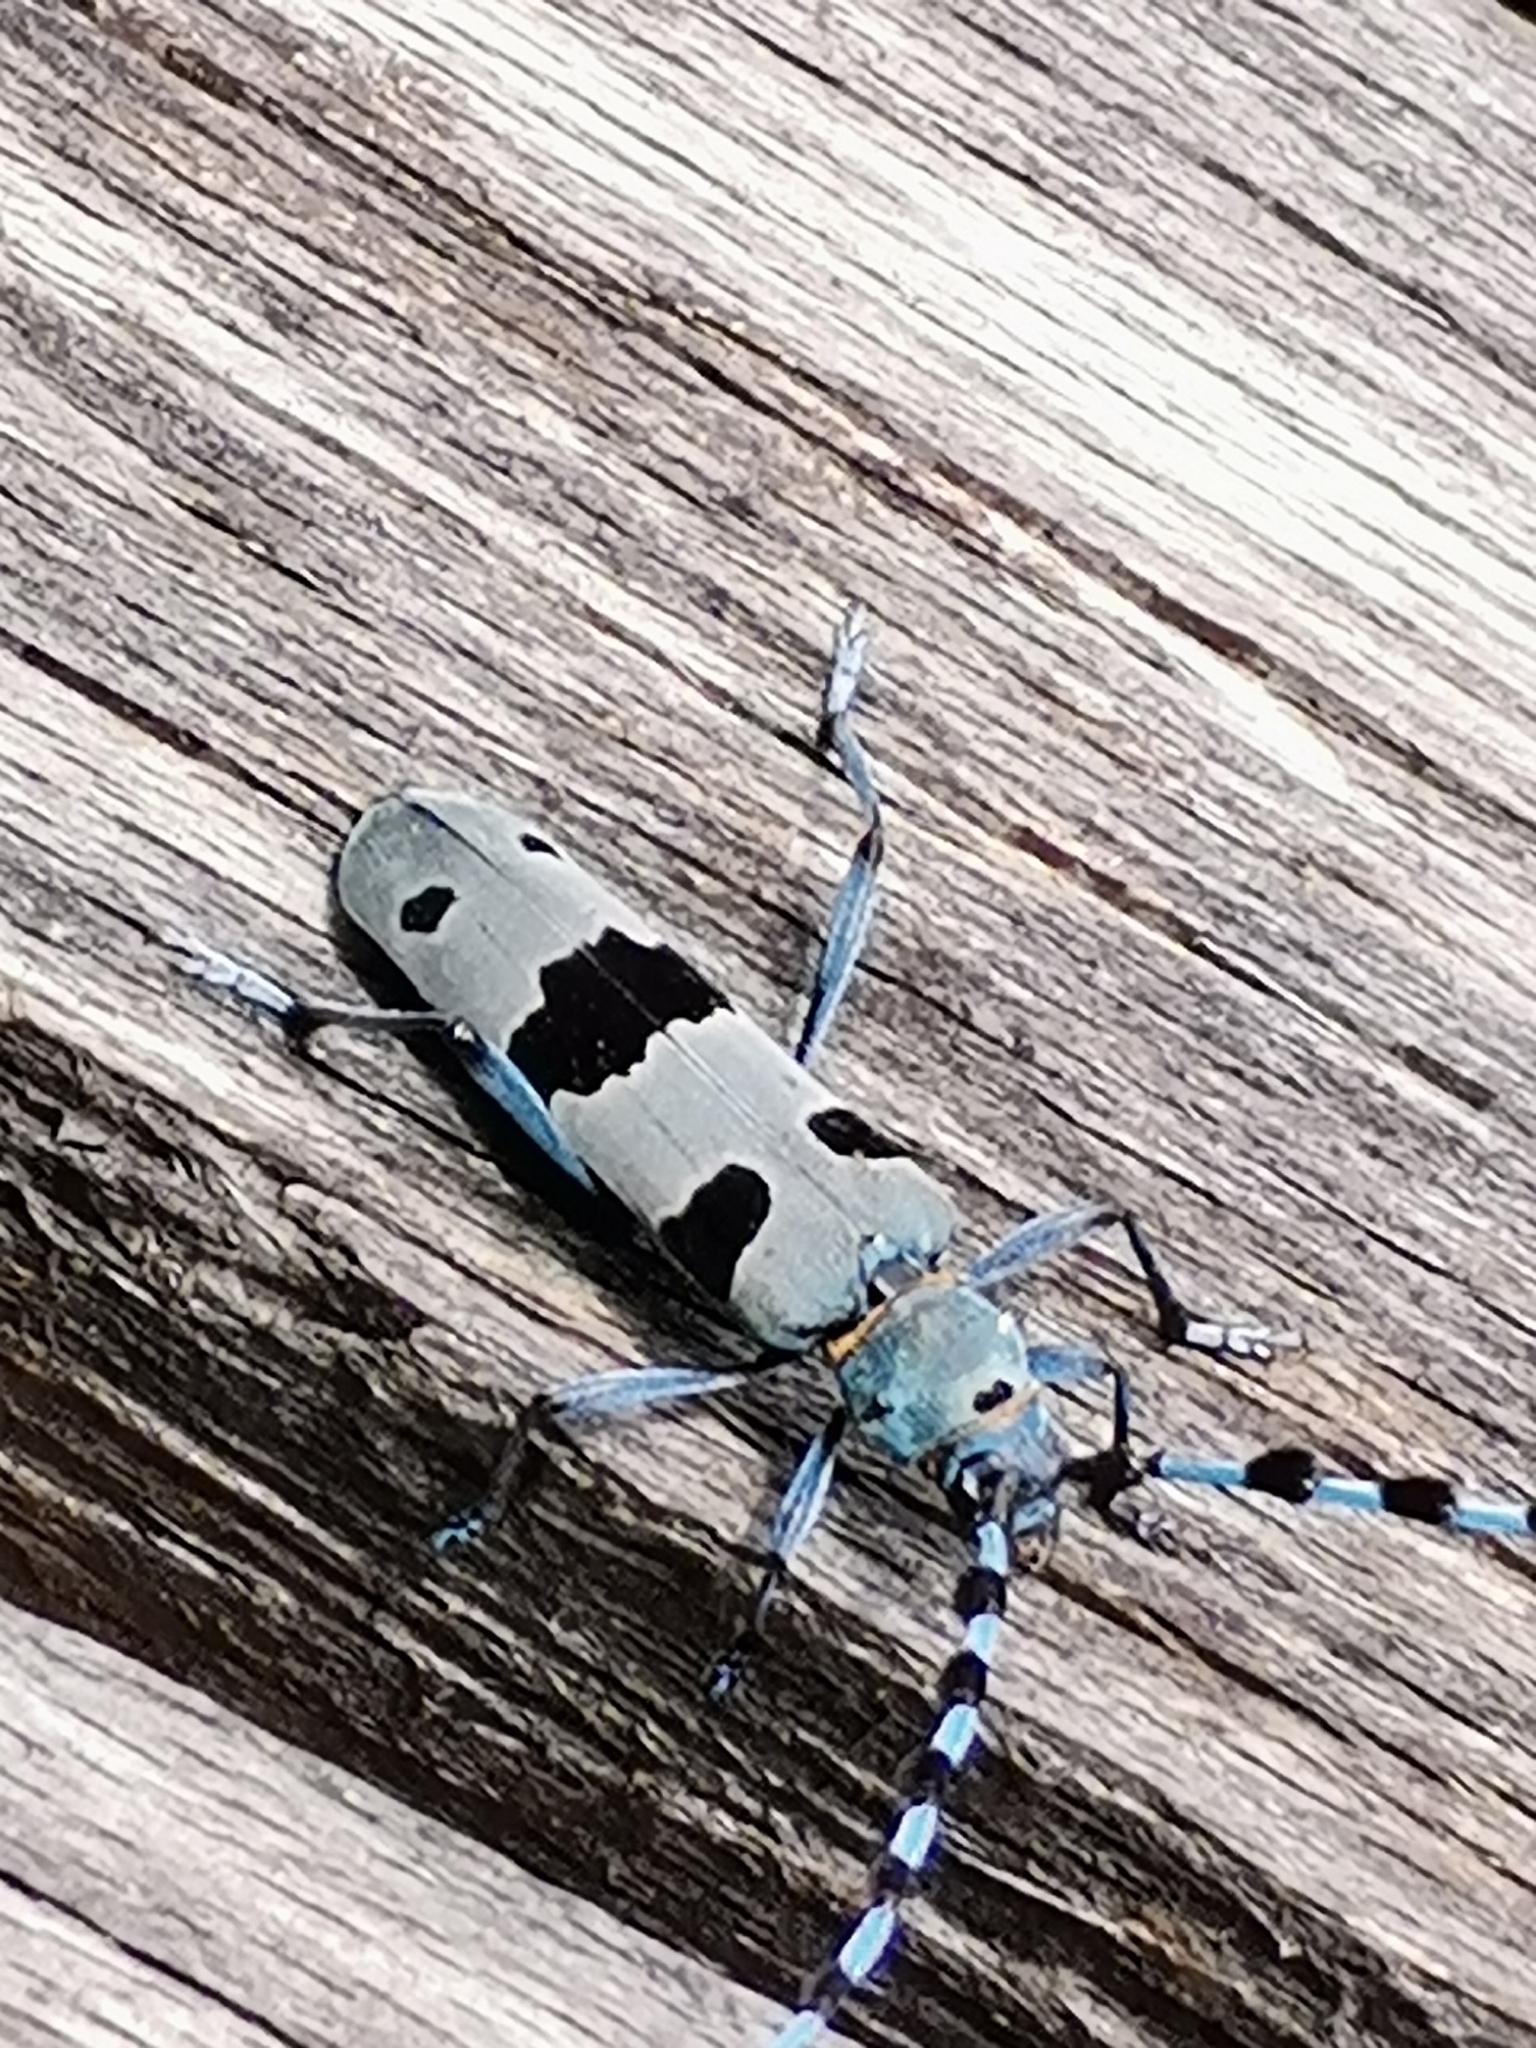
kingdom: Animalia
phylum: Arthropoda
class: Insecta
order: Coleoptera
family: Cerambycidae
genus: Rosalia
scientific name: Rosalia alpina
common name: Rosalia longicorn
